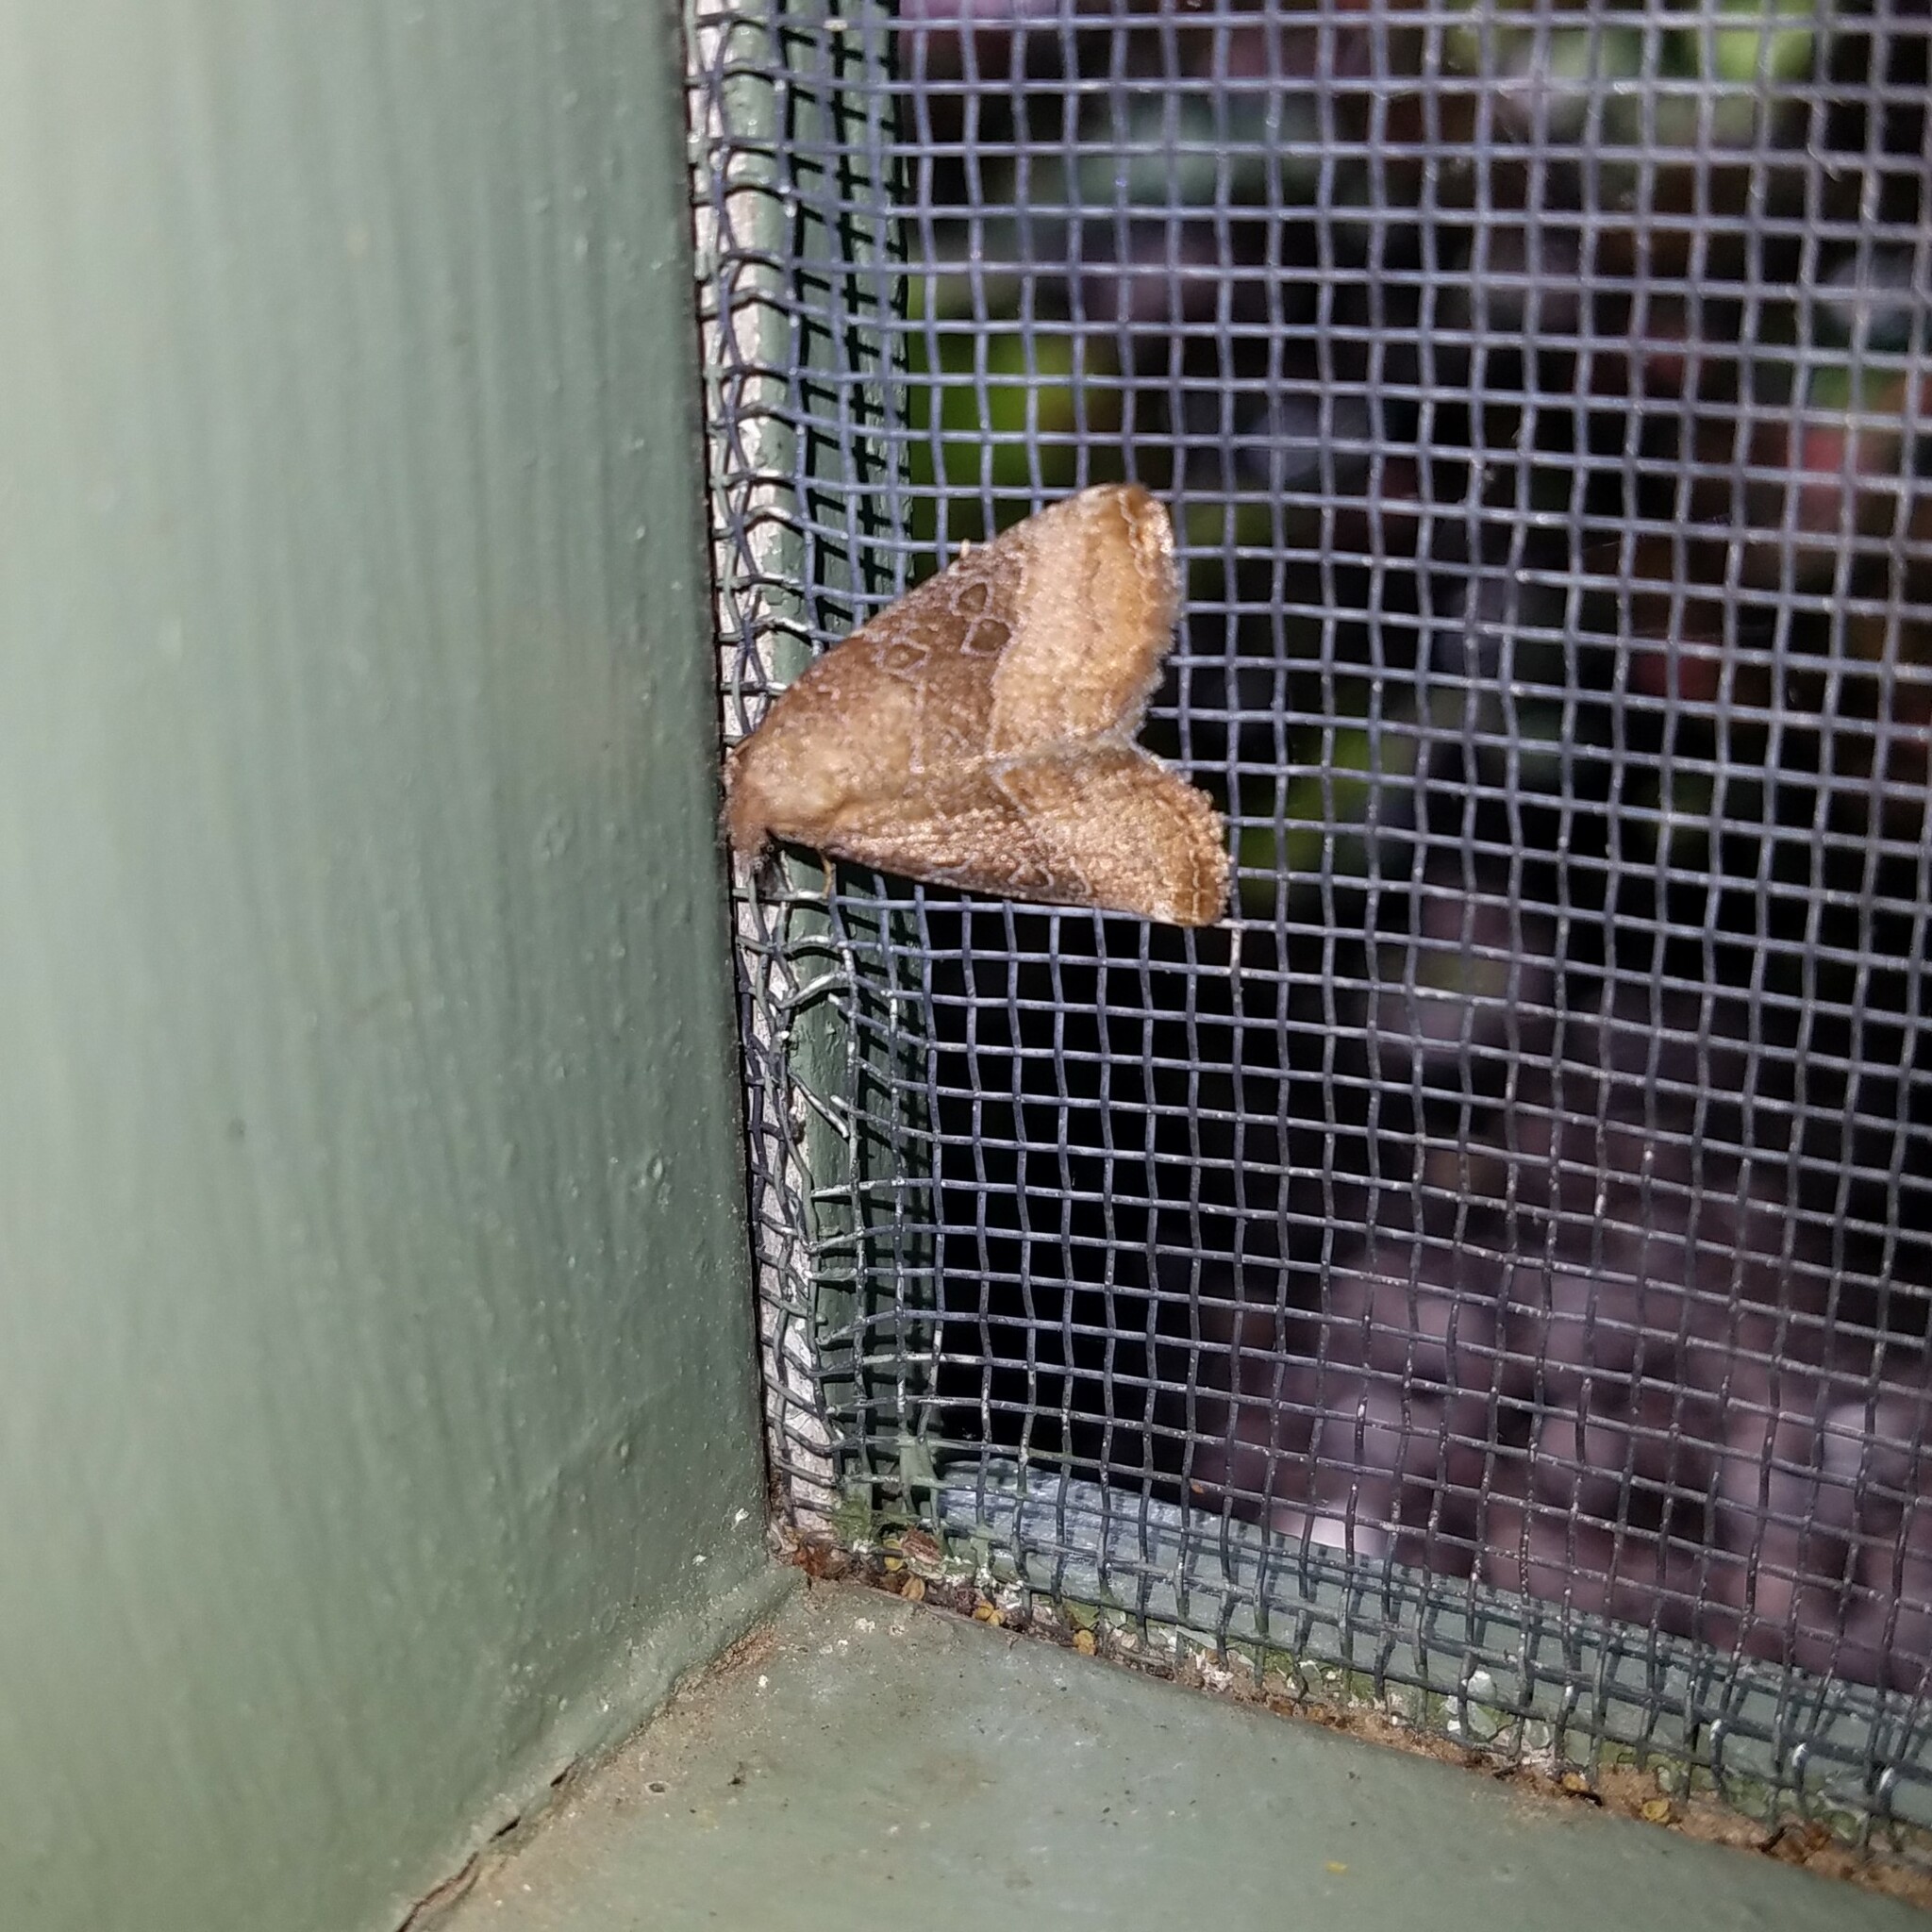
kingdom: Animalia
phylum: Arthropoda
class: Insecta
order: Lepidoptera
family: Noctuidae
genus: Ogdoconta
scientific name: Ogdoconta cinereola
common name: Common pinkband
